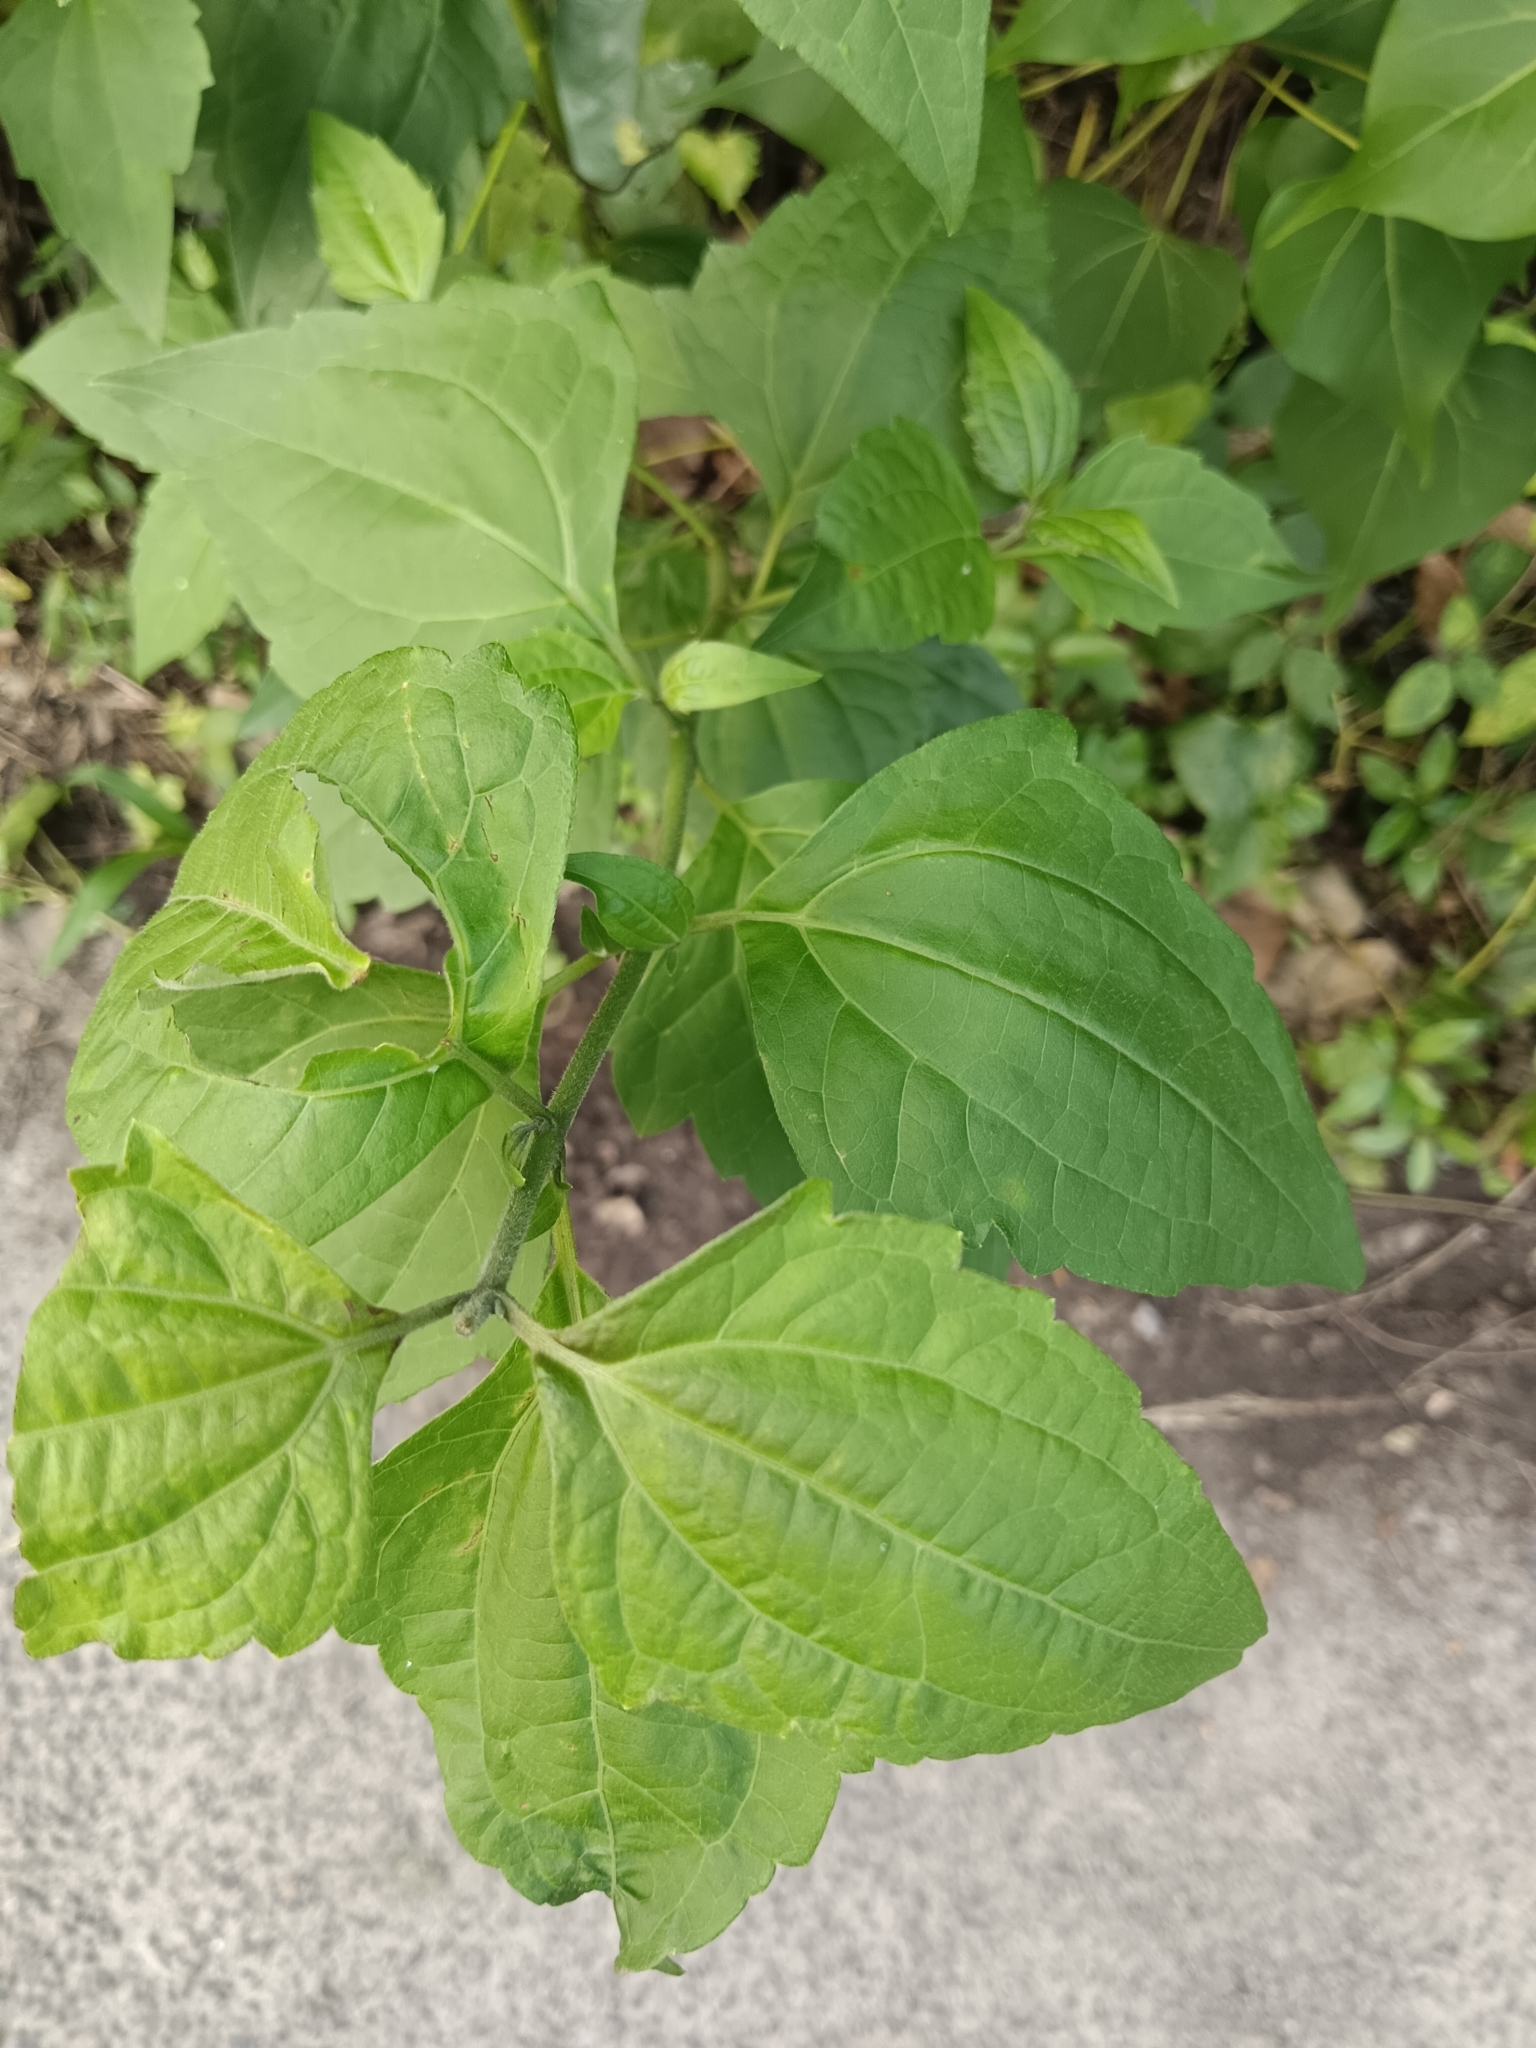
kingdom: Plantae
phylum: Tracheophyta
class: Magnoliopsida
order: Asterales
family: Asteraceae
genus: Chromolaena
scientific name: Chromolaena odorata
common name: Siamweed
